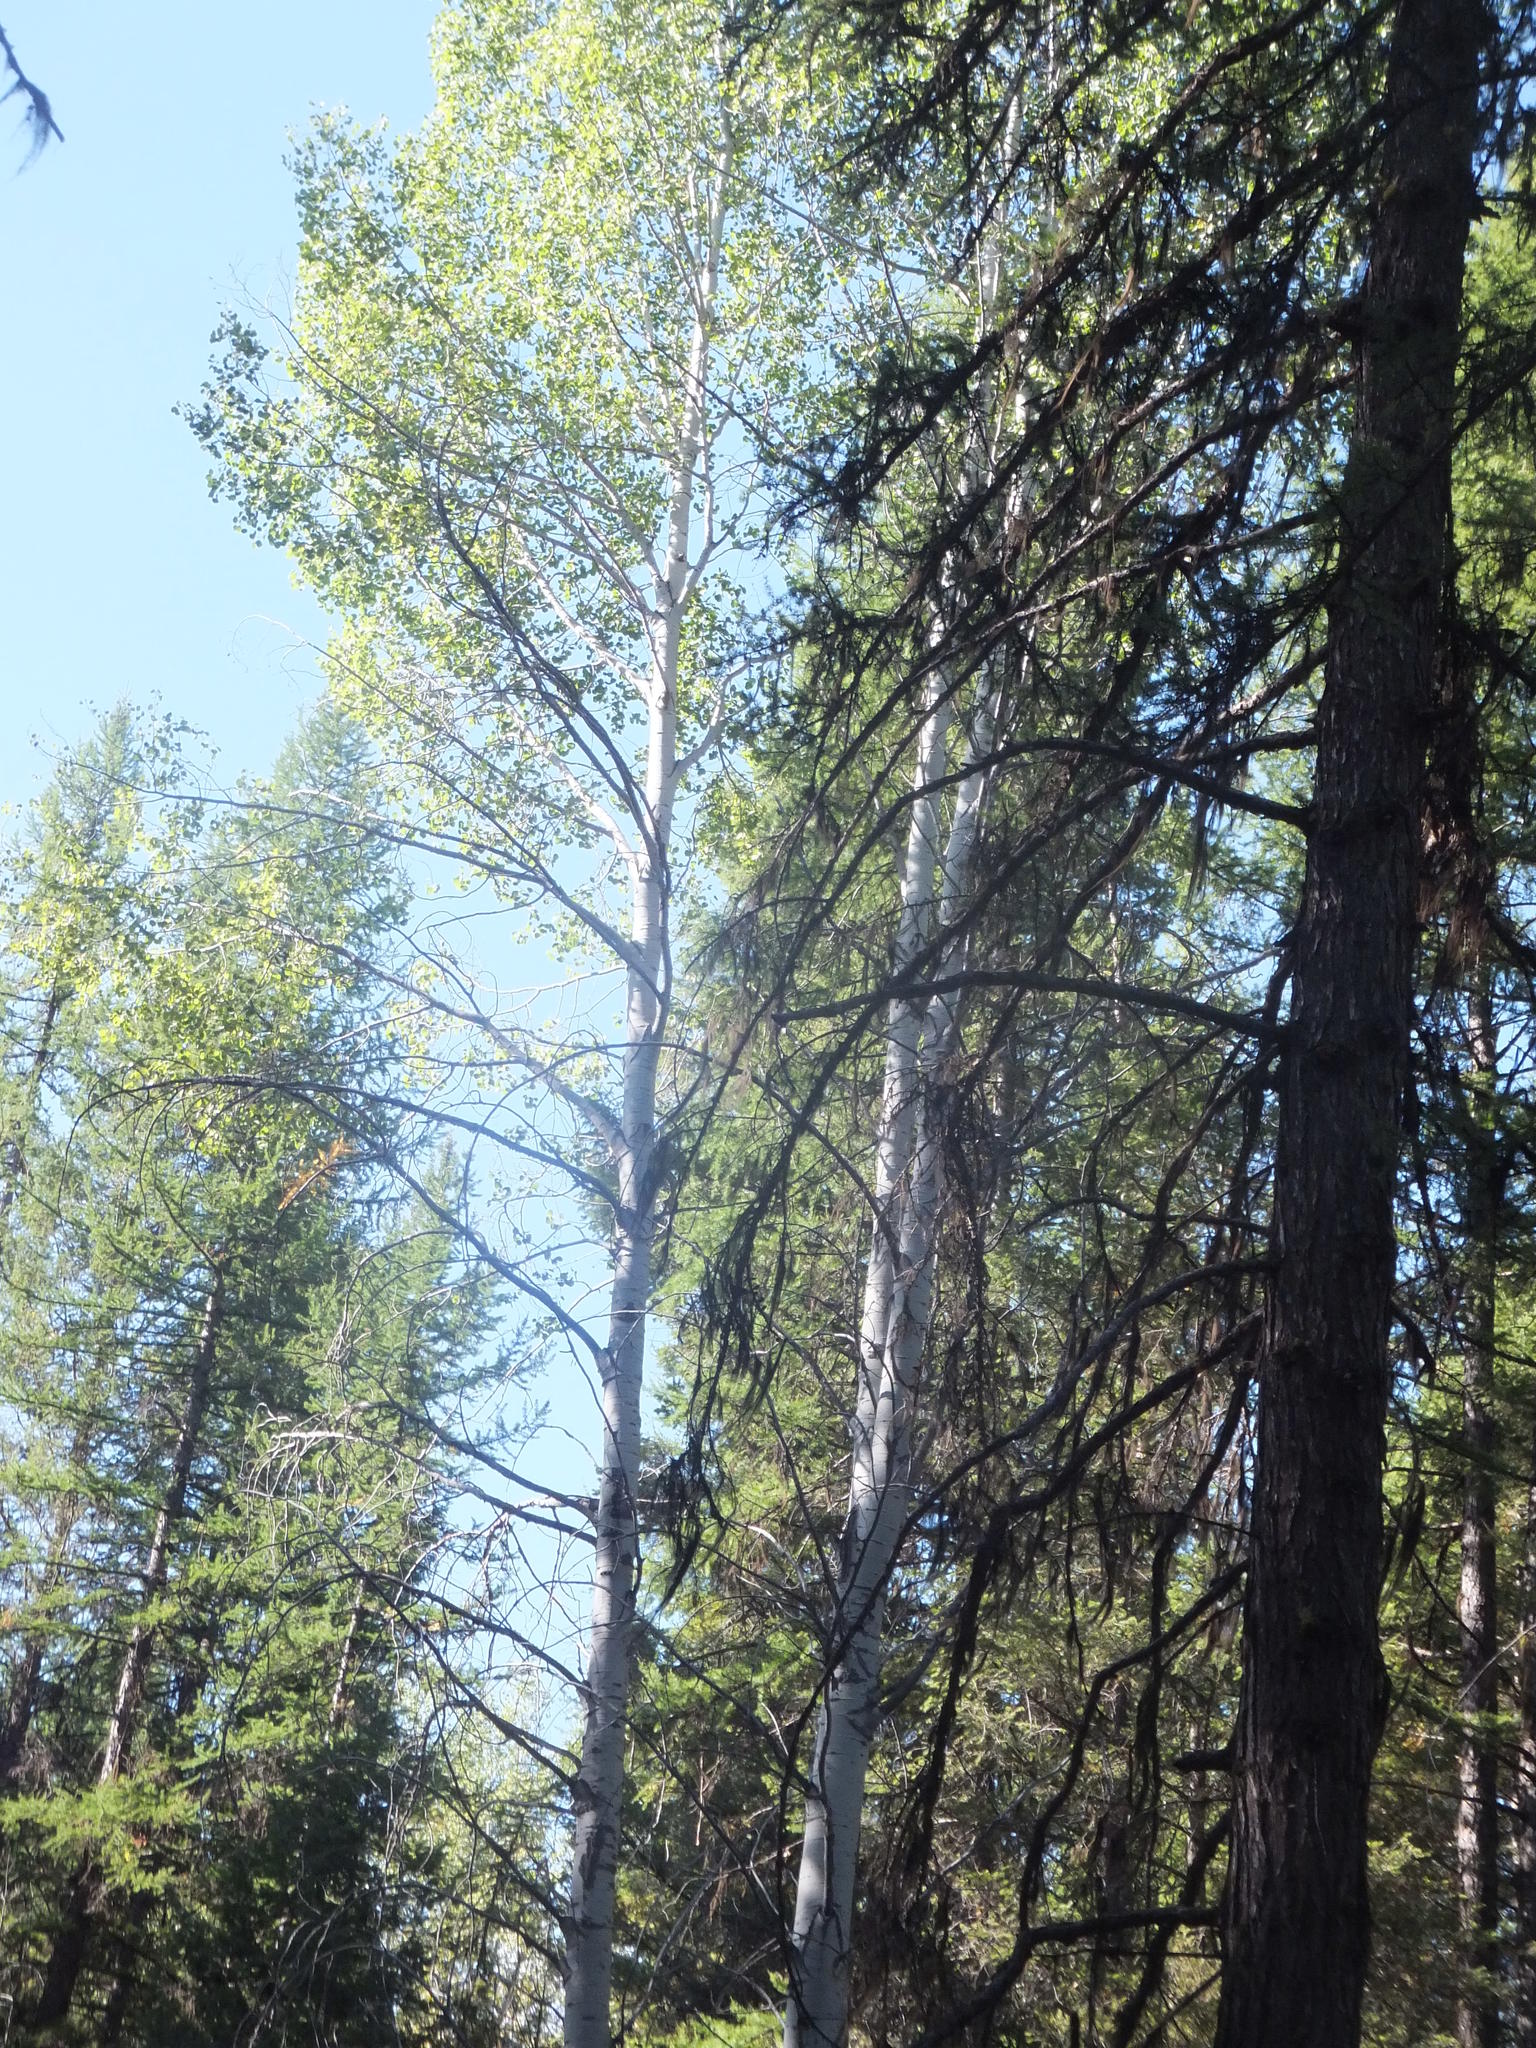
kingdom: Plantae
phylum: Tracheophyta
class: Magnoliopsida
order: Malpighiales
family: Salicaceae
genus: Populus
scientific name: Populus tremuloides
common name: Quaking aspen
